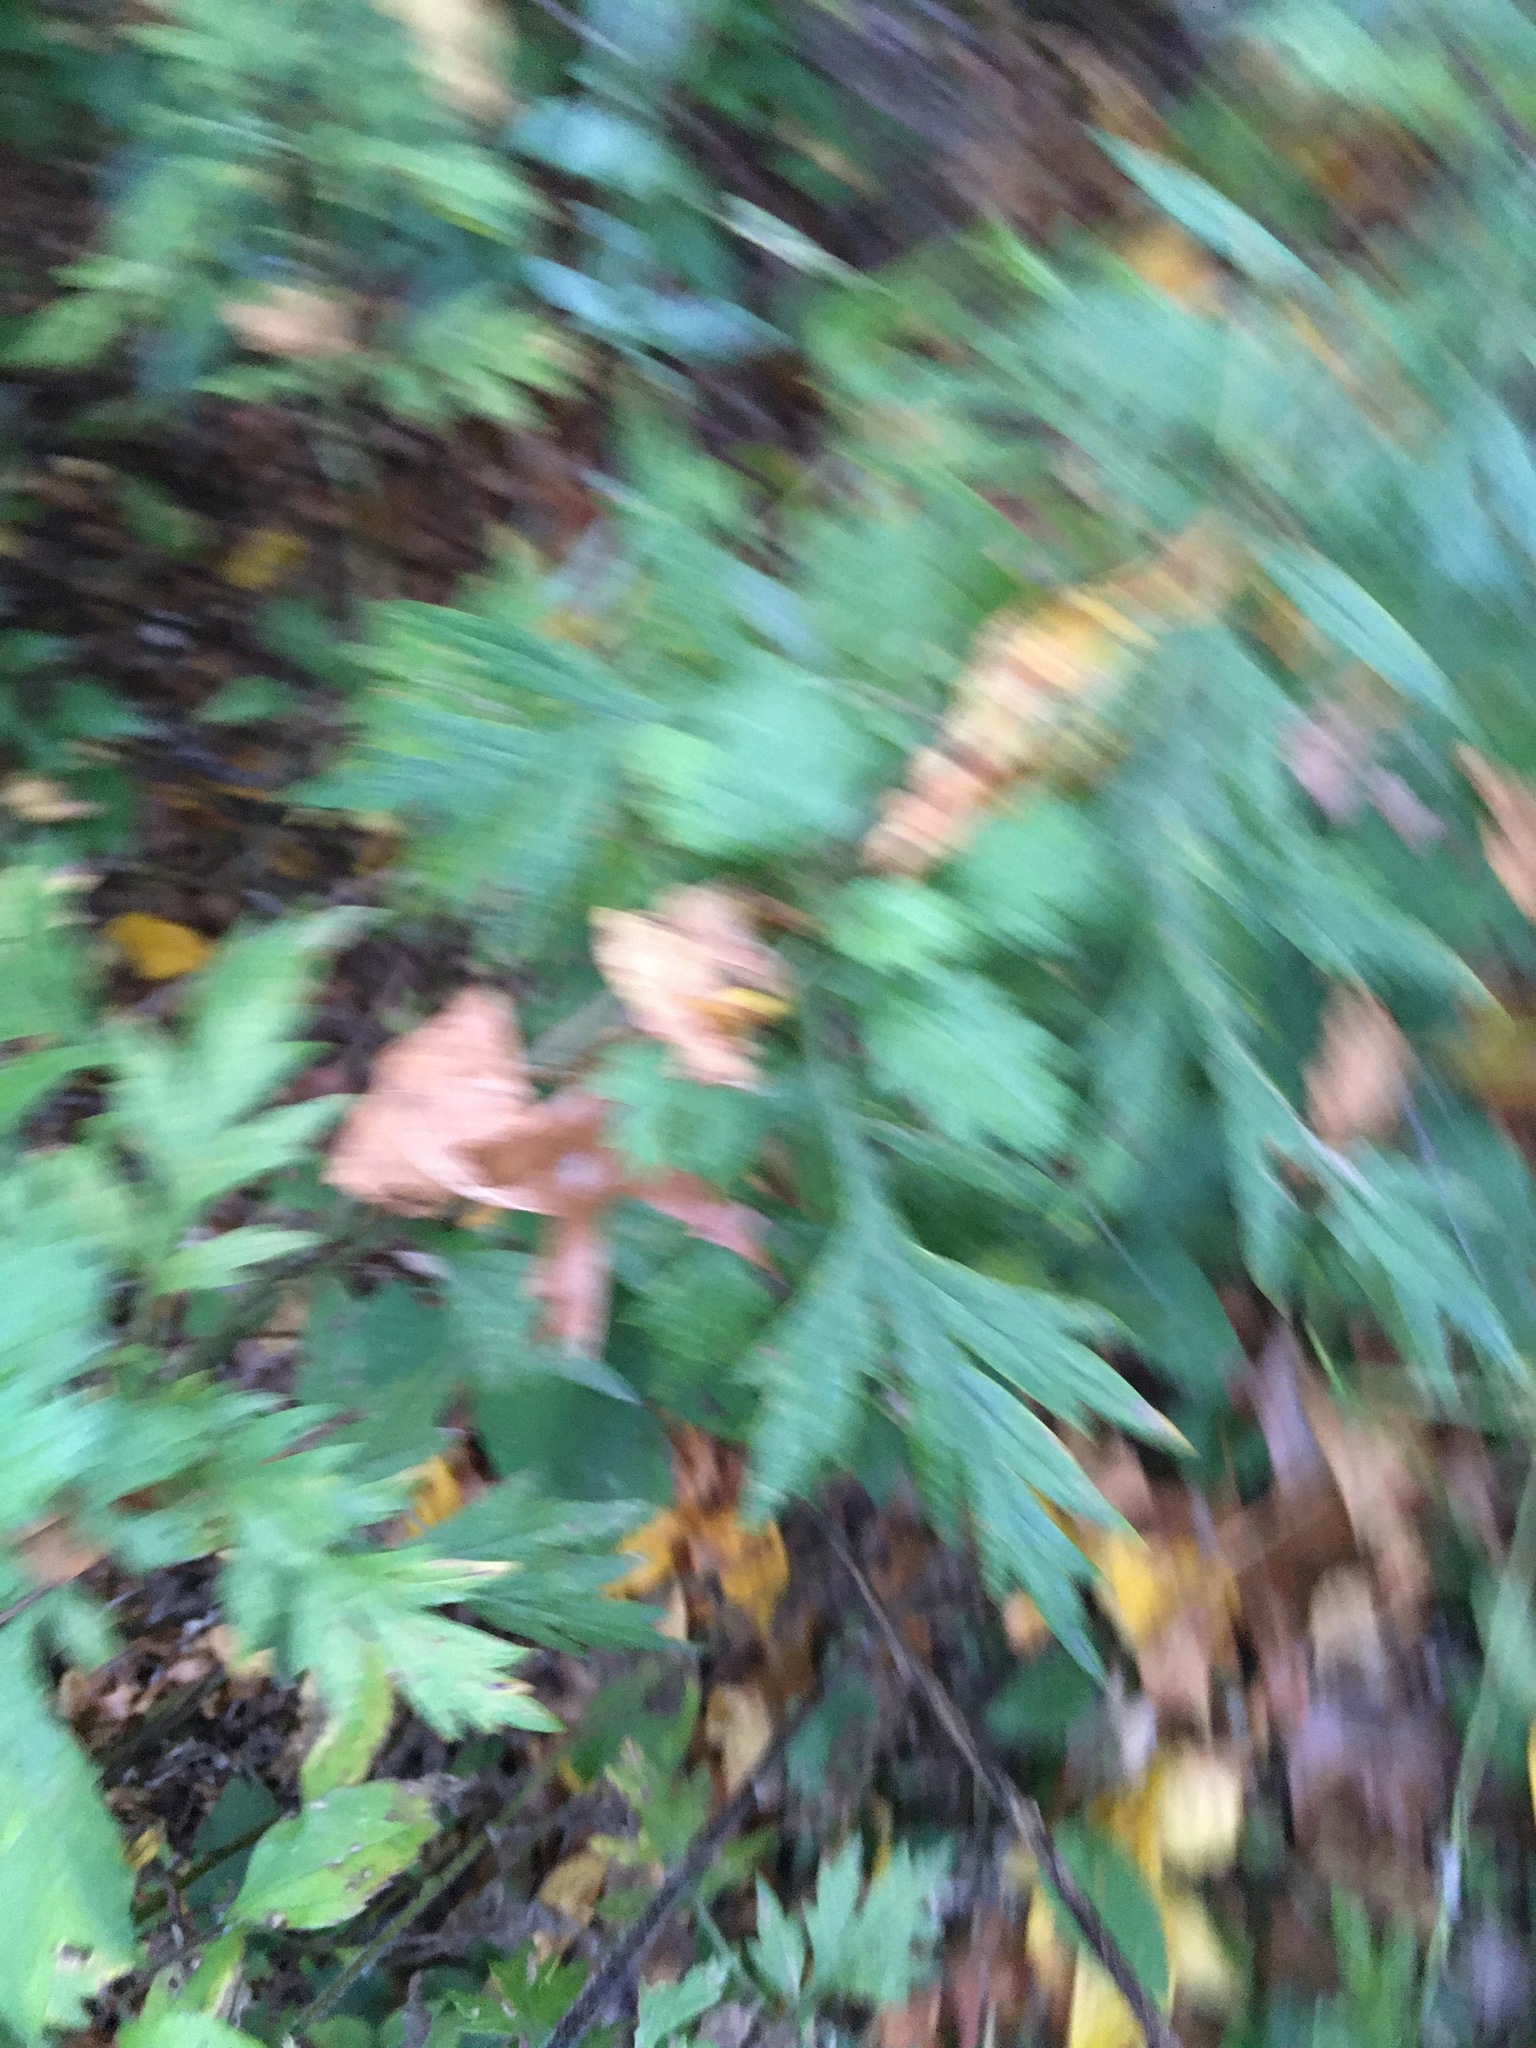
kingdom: Plantae
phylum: Tracheophyta
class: Magnoliopsida
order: Asterales
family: Asteraceae
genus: Artemisia
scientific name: Artemisia vulgaris
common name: Mugwort
